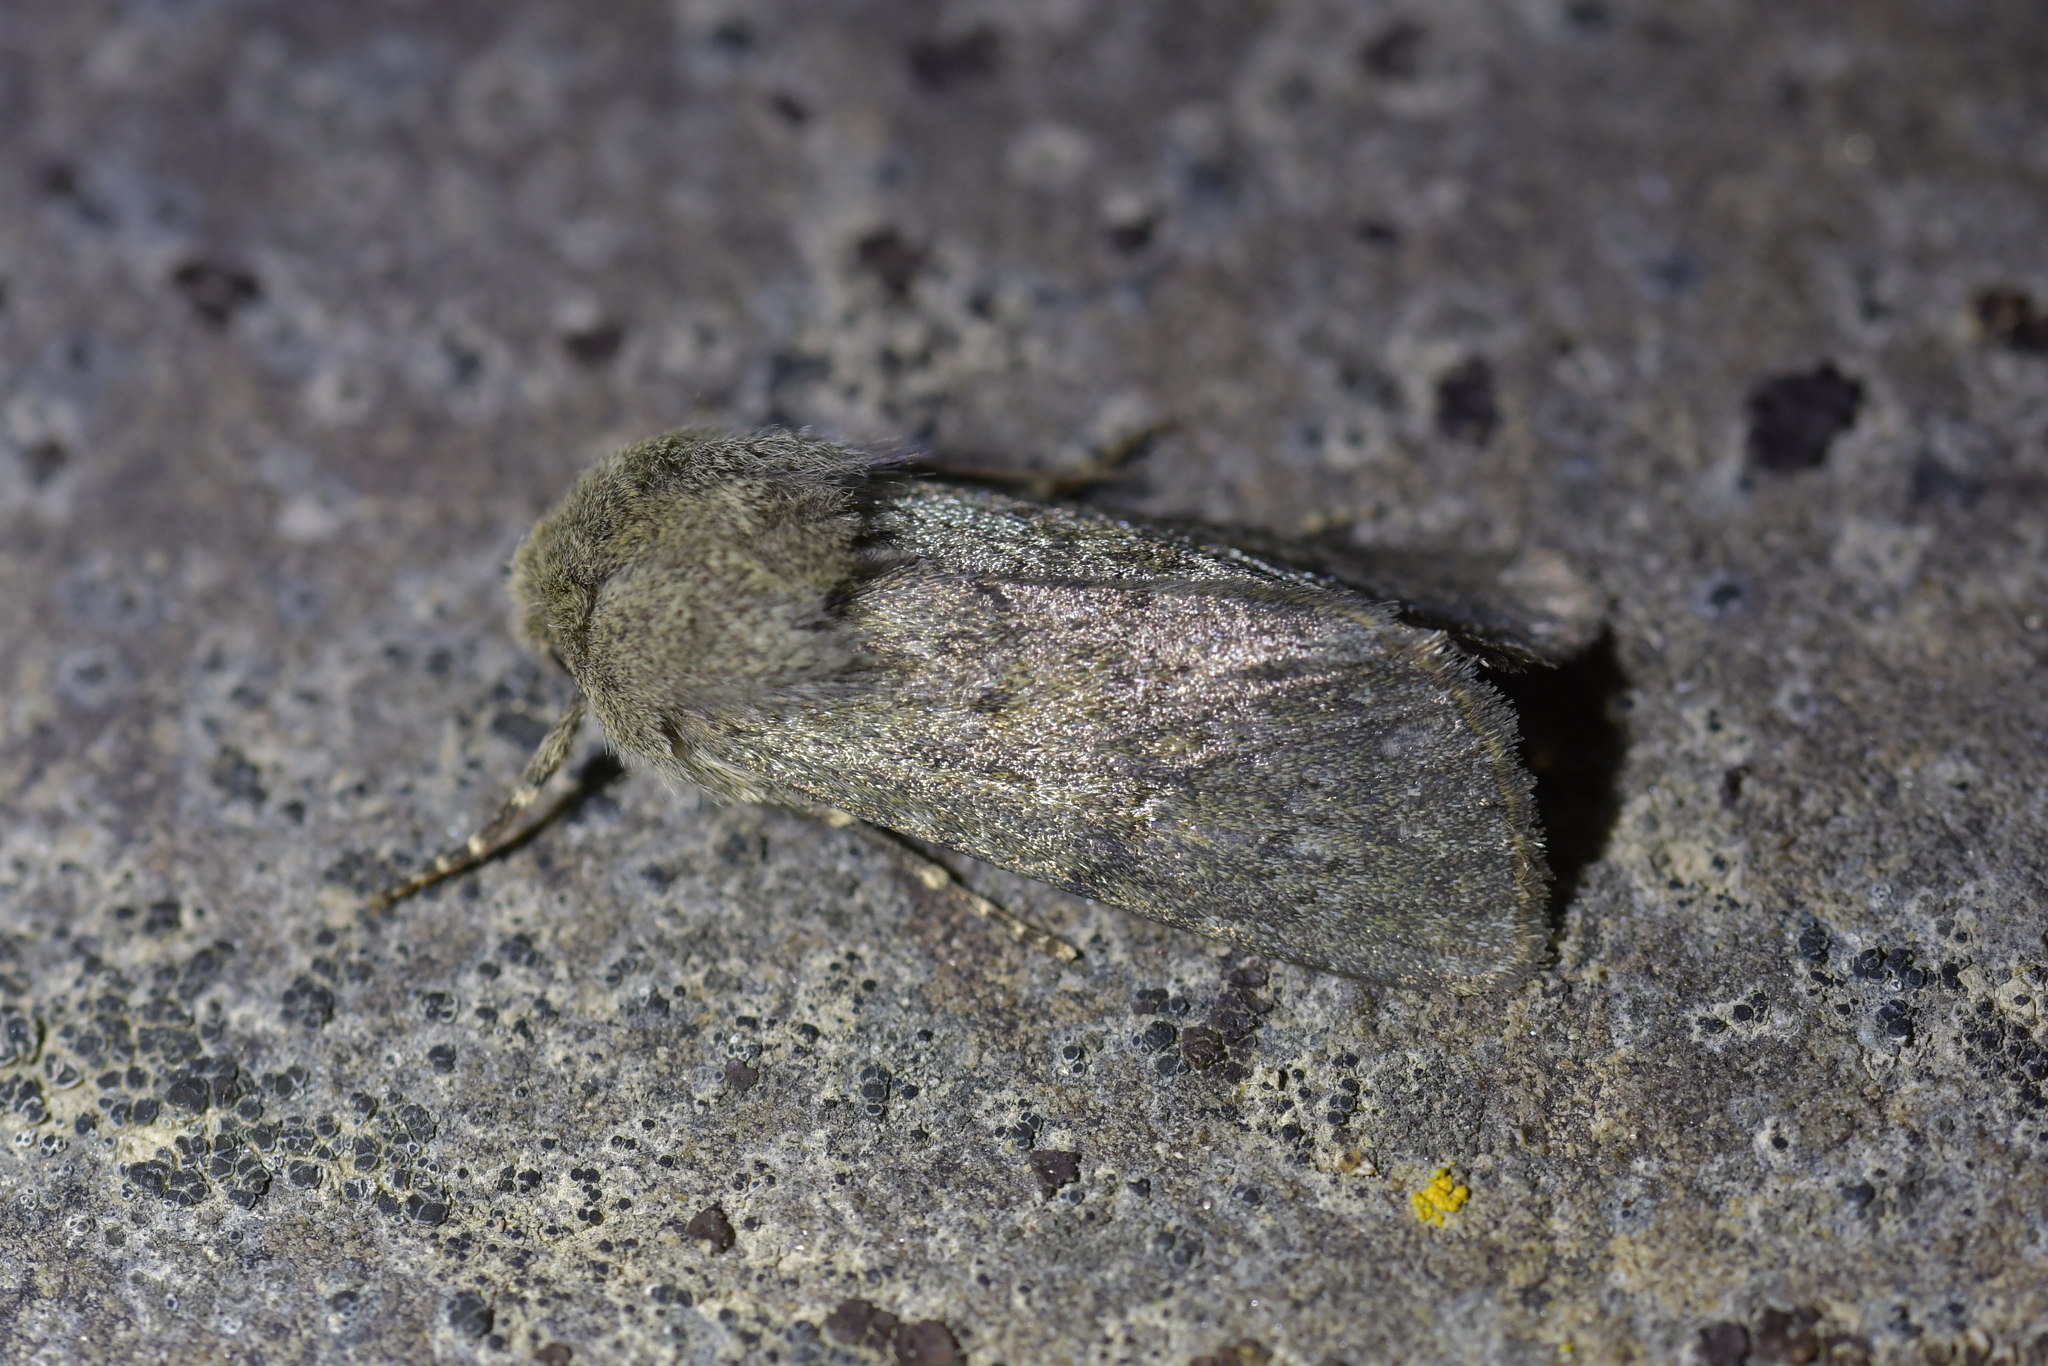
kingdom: Animalia
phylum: Arthropoda
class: Insecta
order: Lepidoptera
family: Noctuidae
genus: Physetica
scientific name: Physetica caerulea
